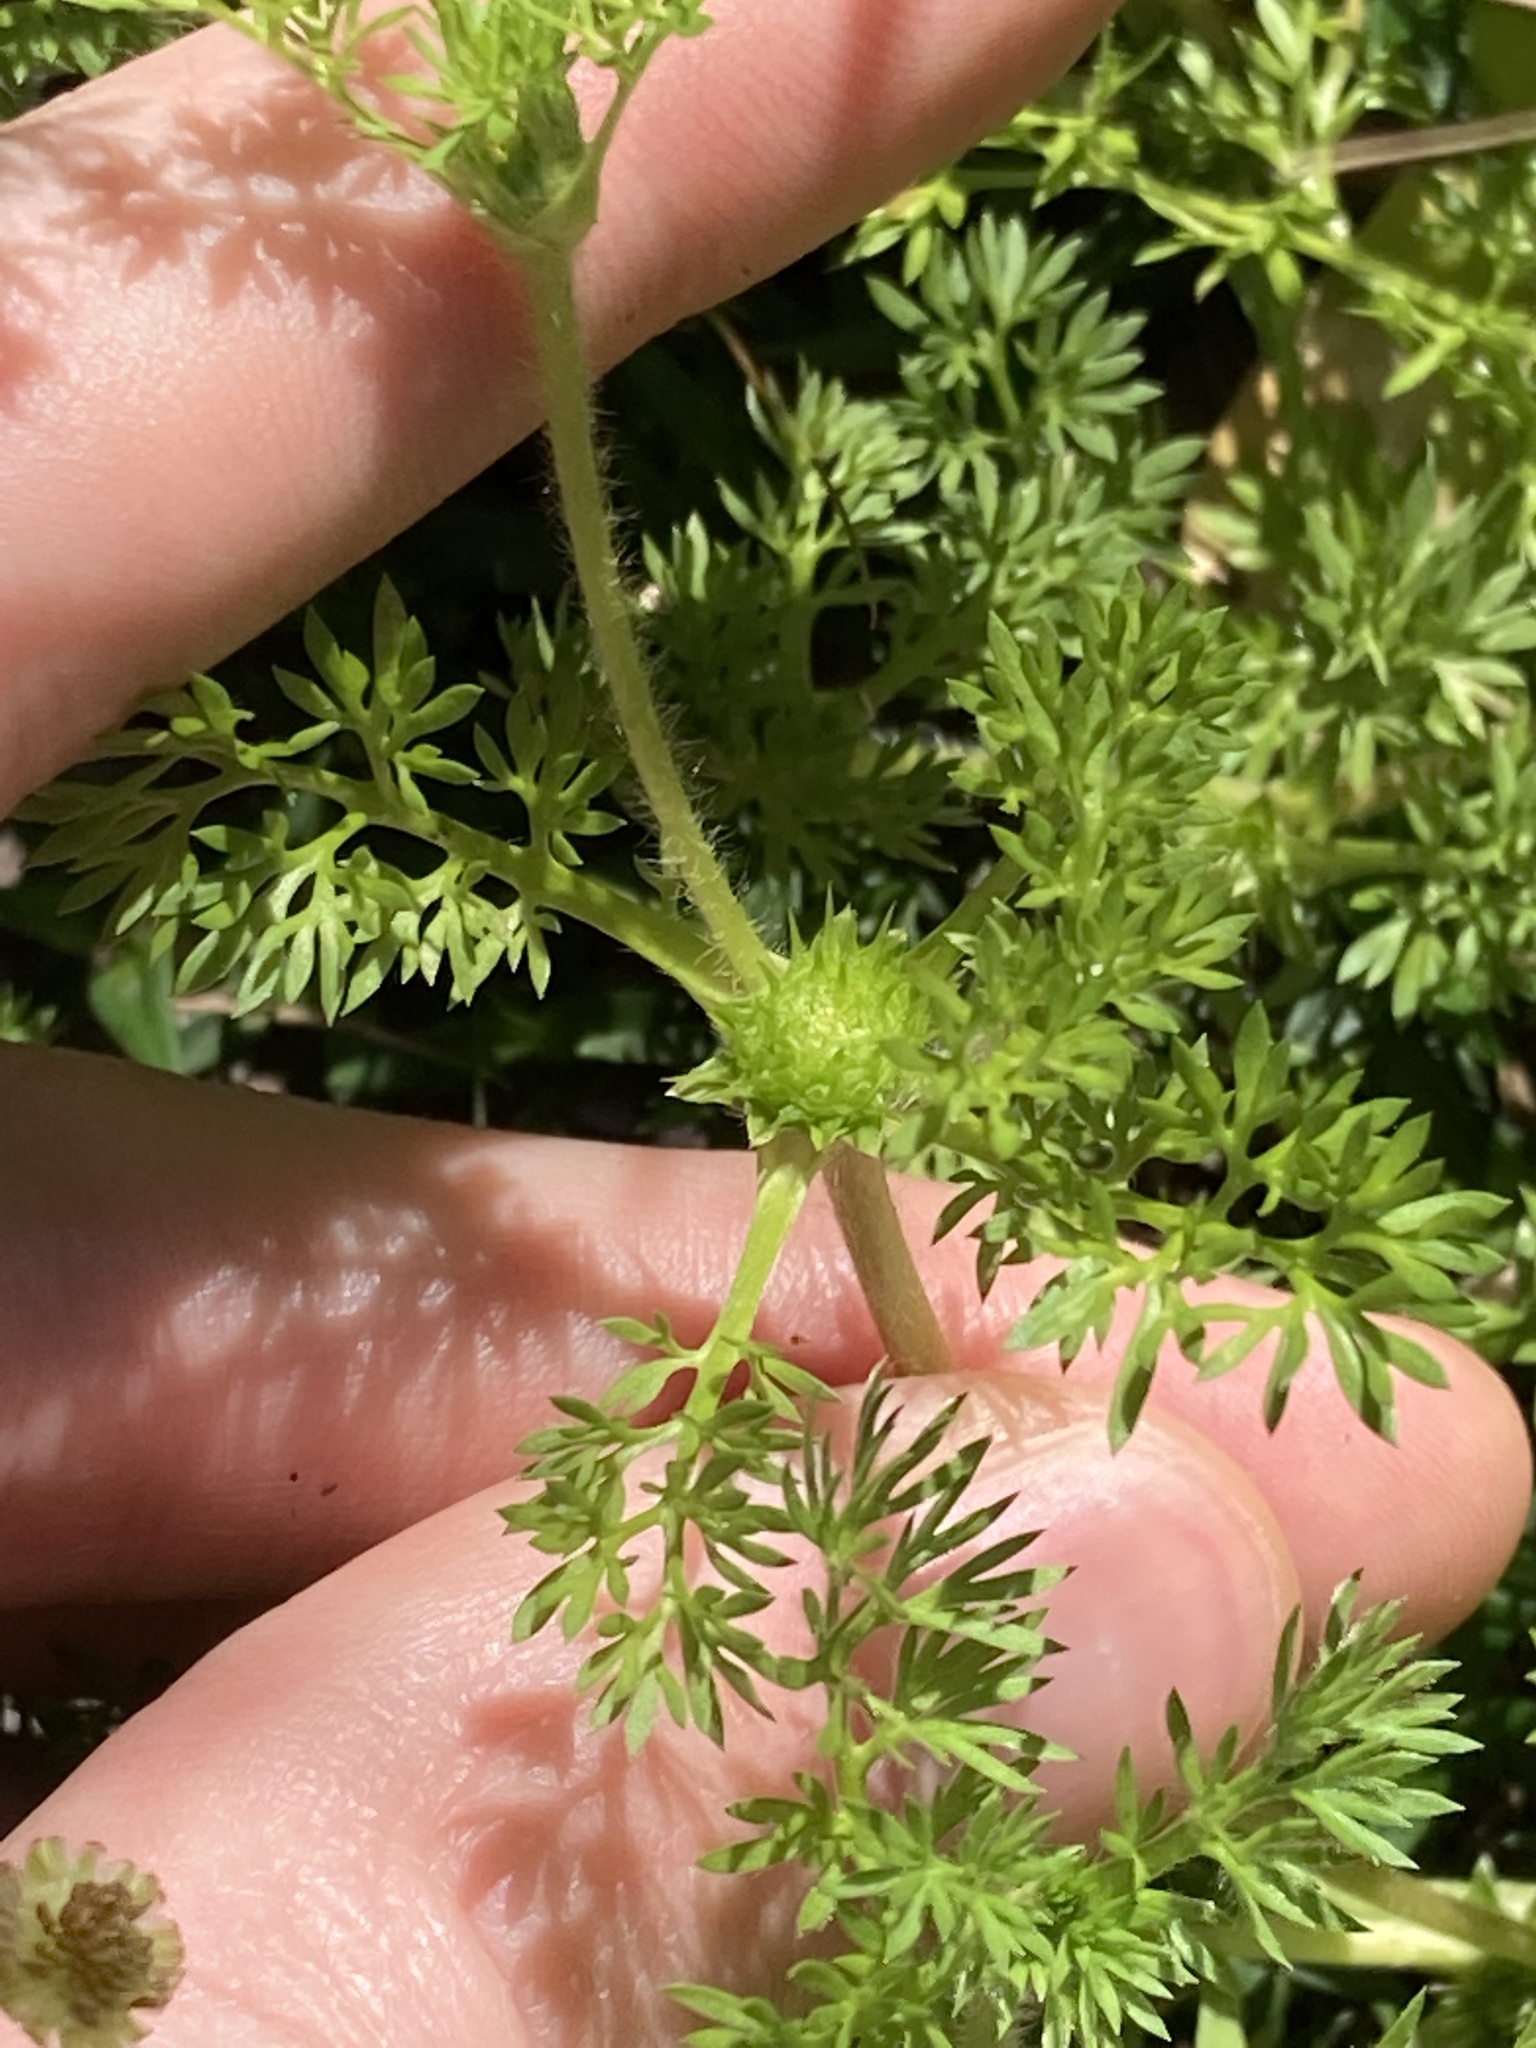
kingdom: Plantae
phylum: Tracheophyta
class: Magnoliopsida
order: Asterales
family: Asteraceae
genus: Soliva
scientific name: Soliva sessilis
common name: Field burrweed
